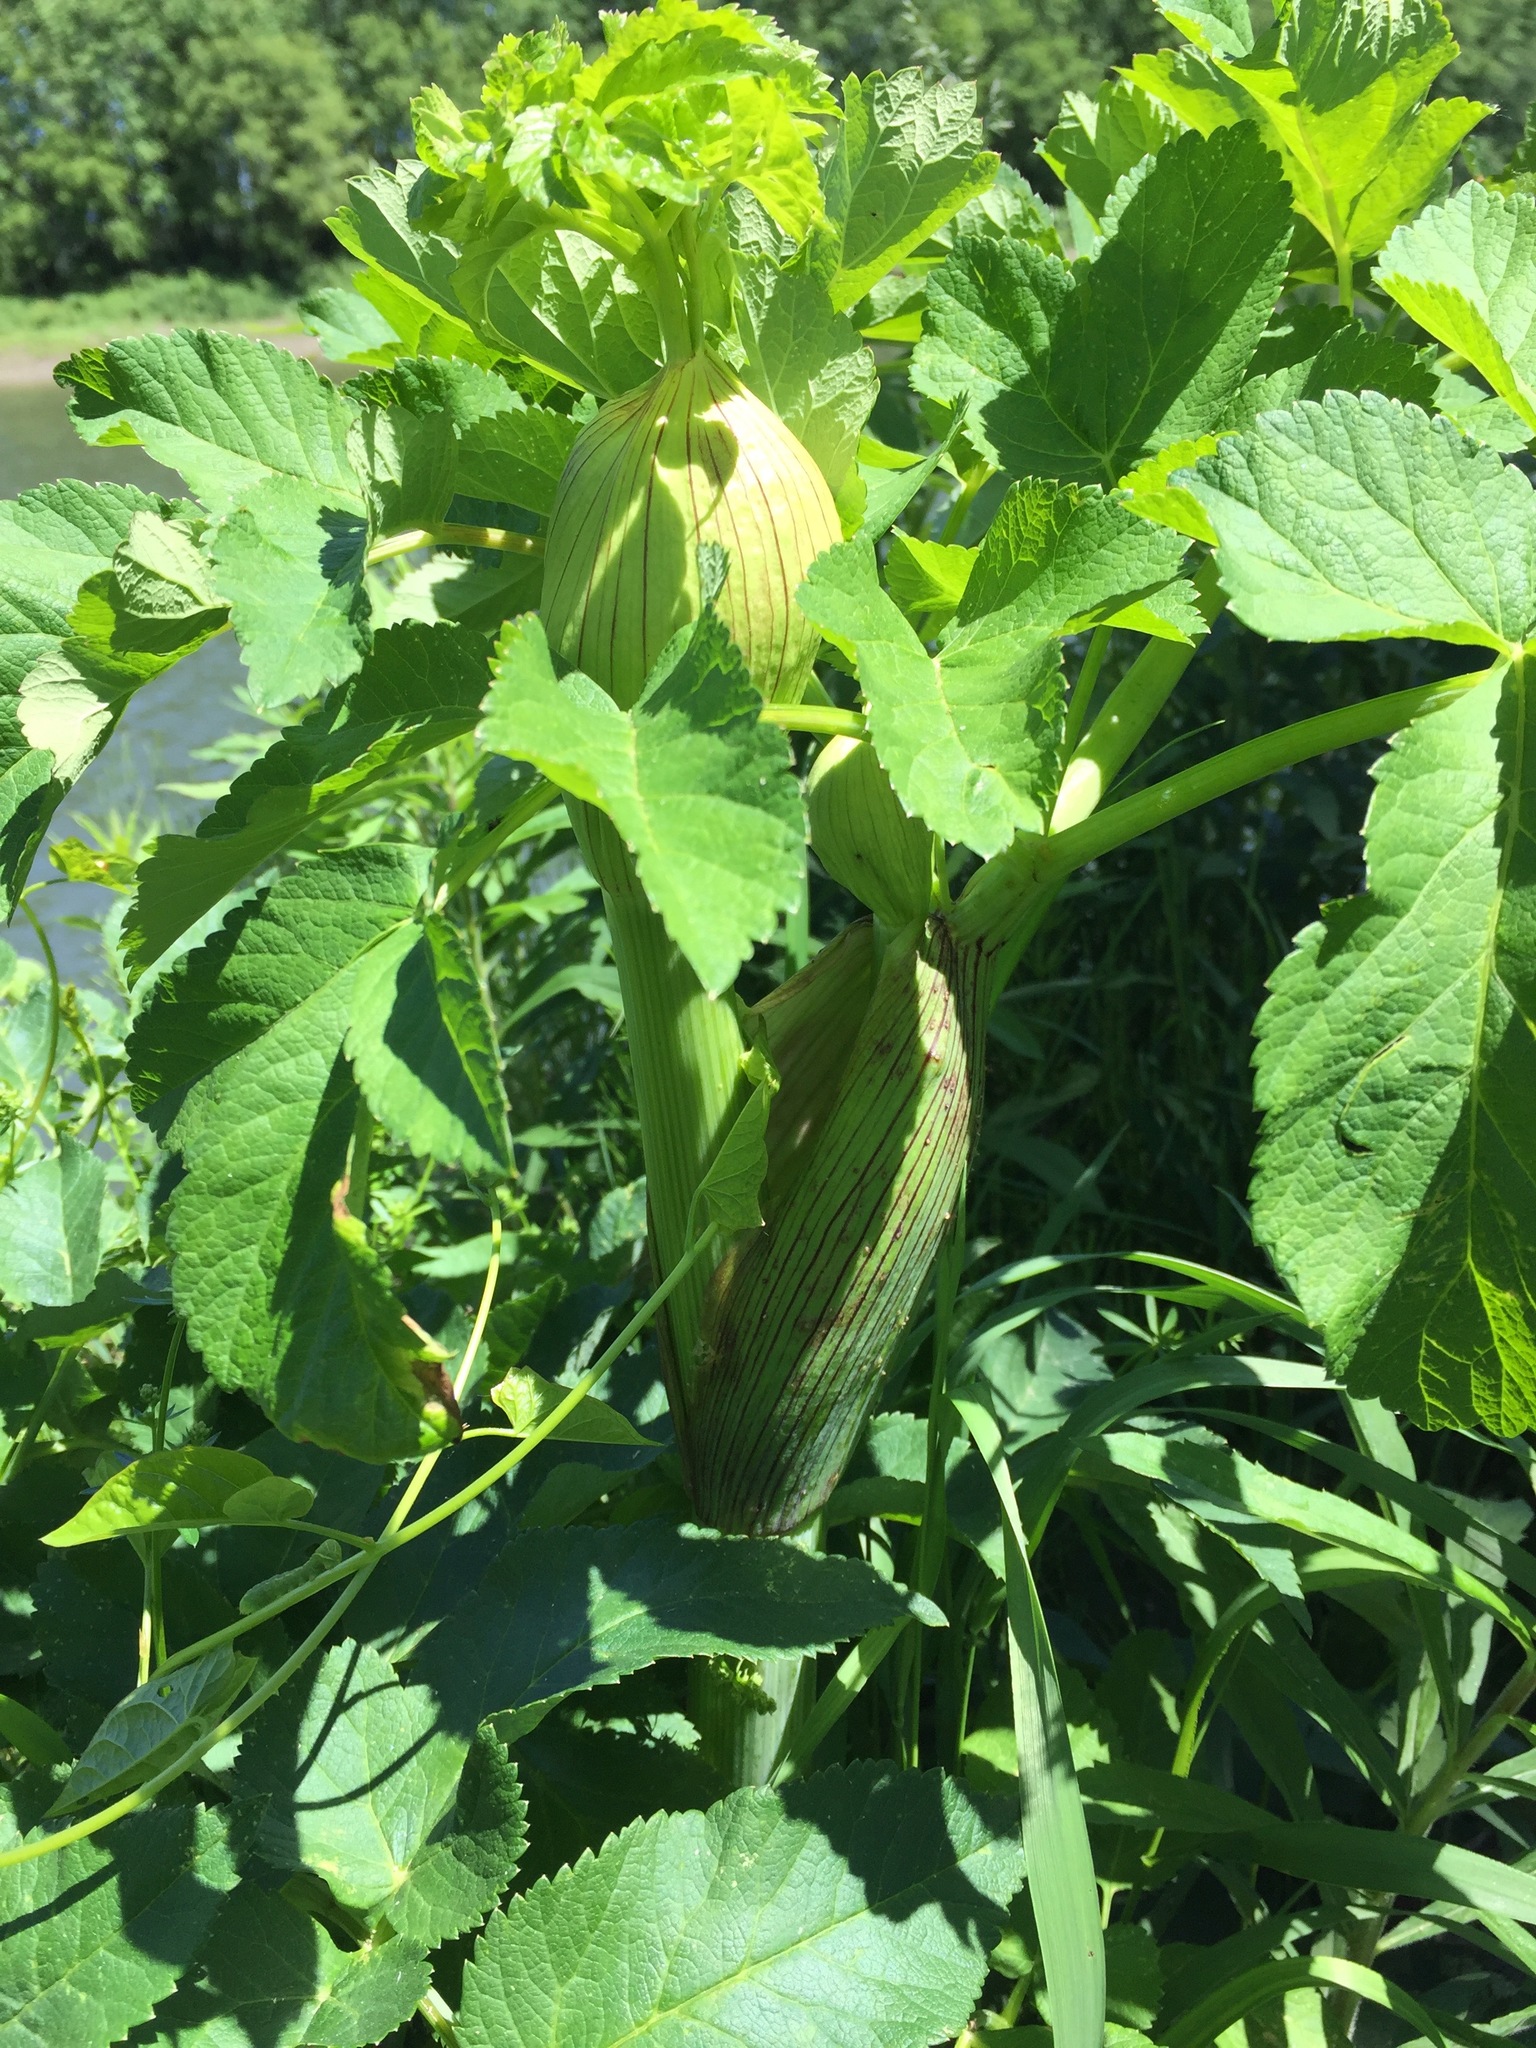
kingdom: Plantae
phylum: Tracheophyta
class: Magnoliopsida
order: Apiales
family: Apiaceae
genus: Angelica
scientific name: Angelica atropurpurea
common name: Great angelica
